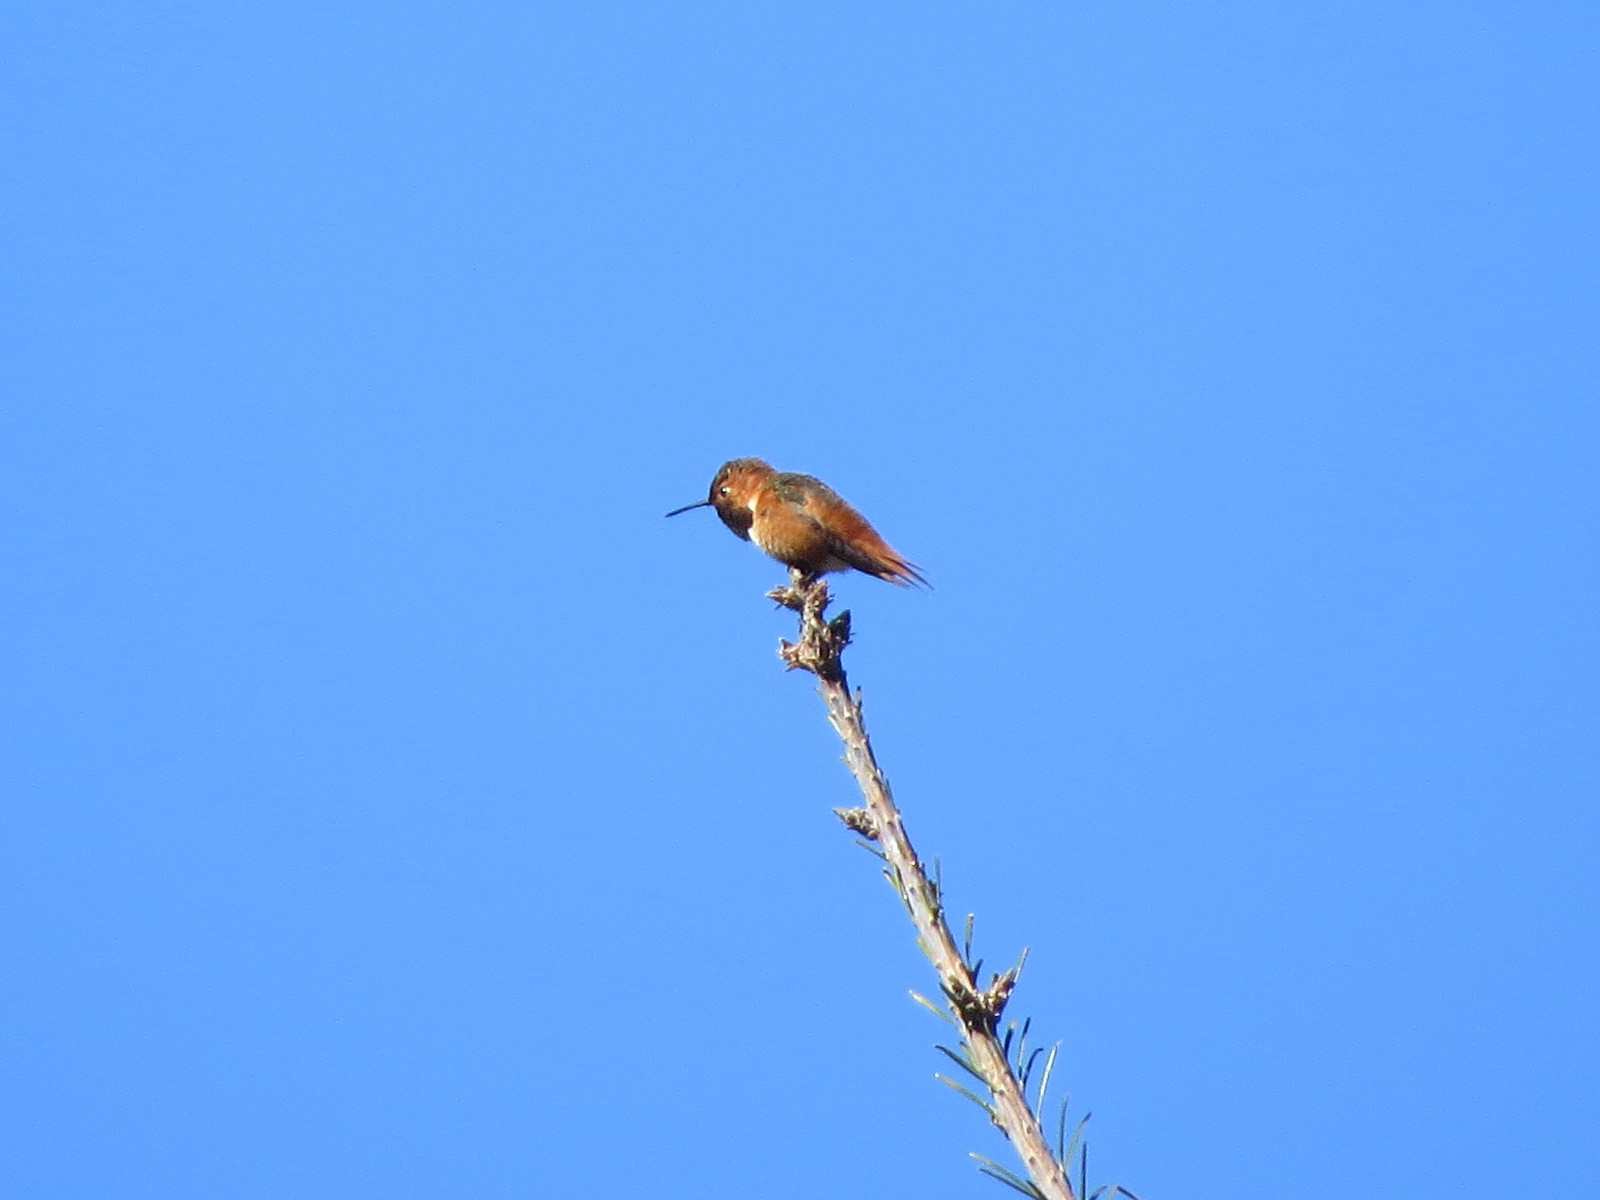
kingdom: Animalia
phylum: Chordata
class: Aves
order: Apodiformes
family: Trochilidae
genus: Selasphorus
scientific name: Selasphorus sasin
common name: Allen's hummingbird
